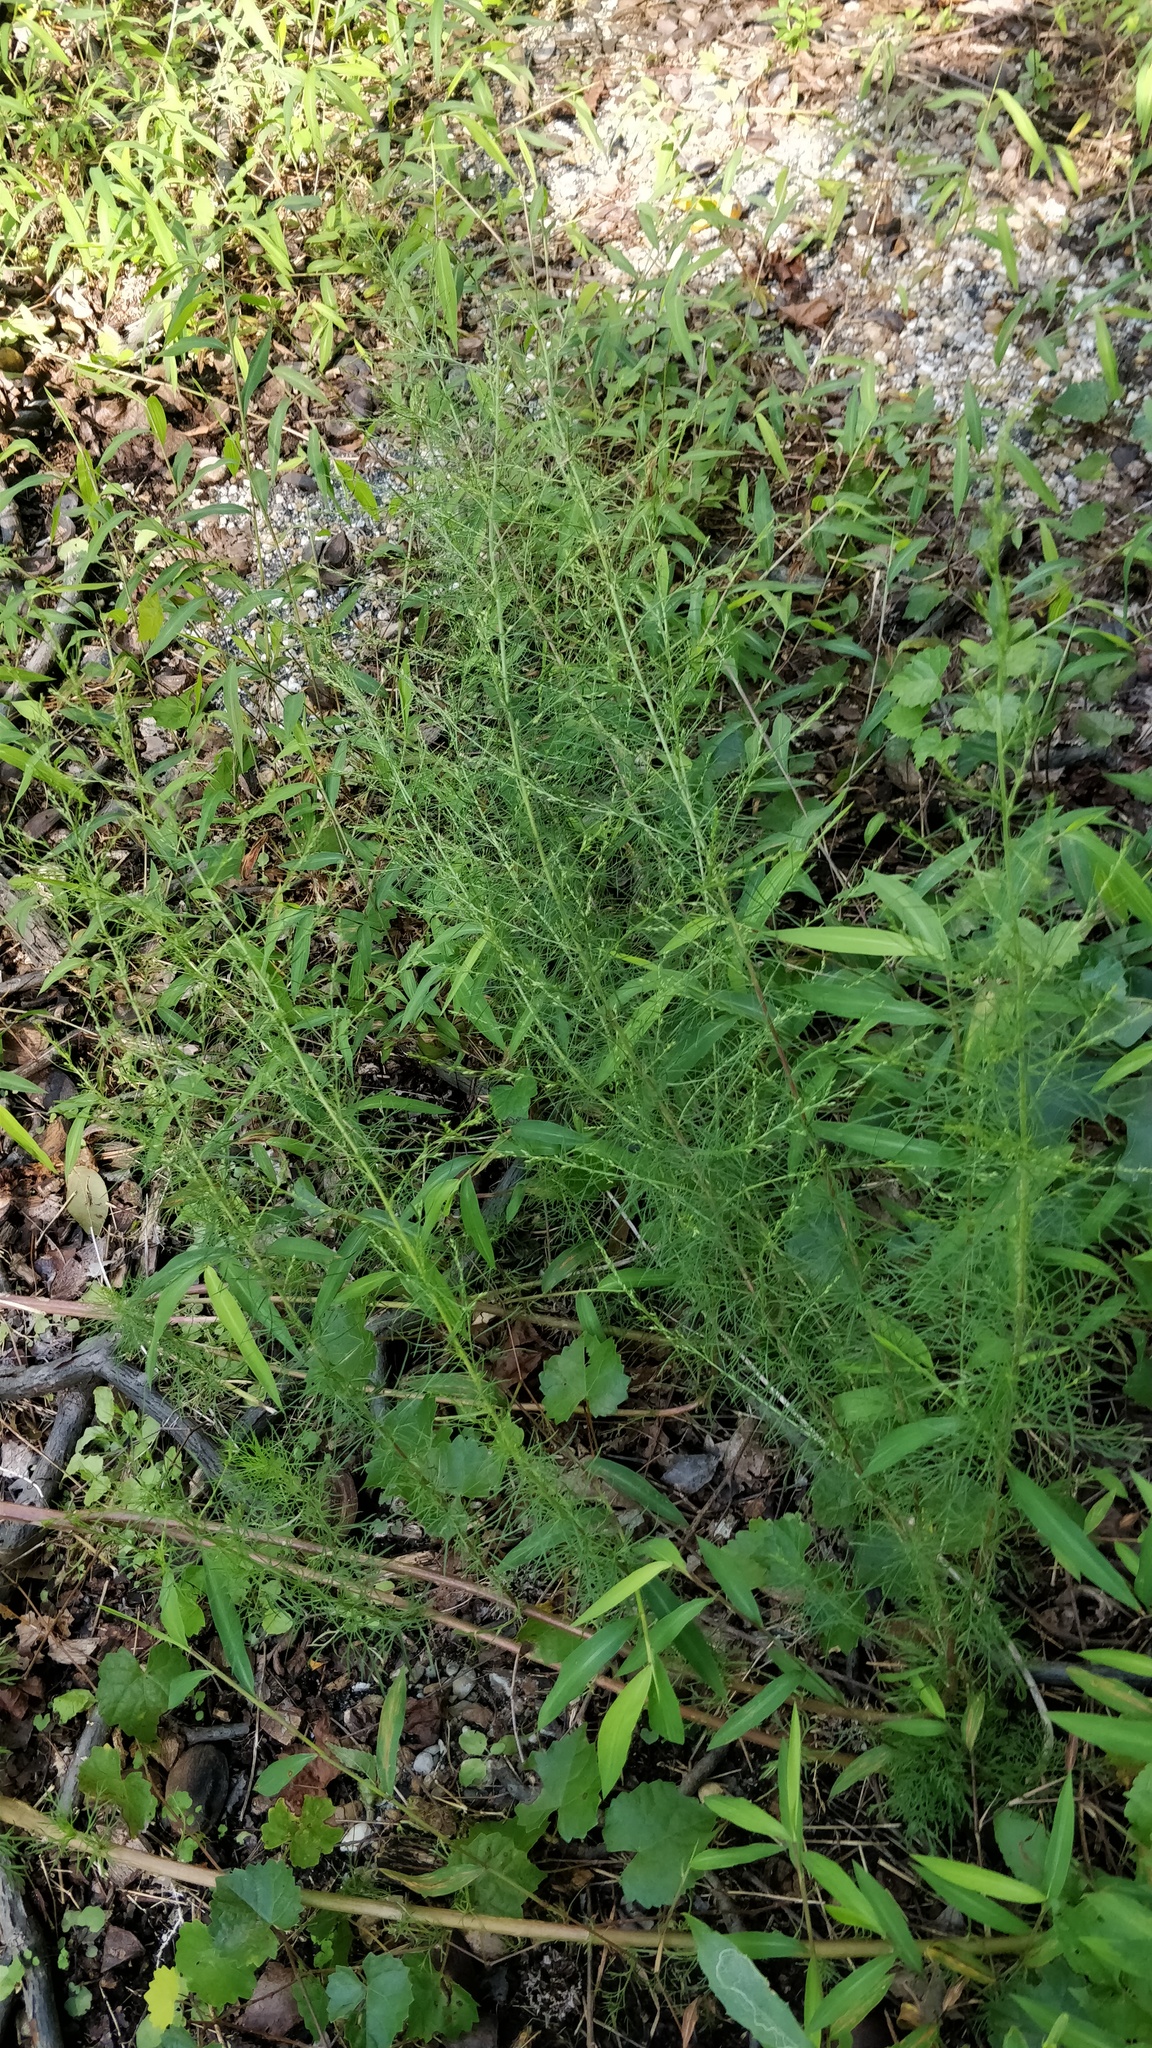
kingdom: Plantae
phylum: Tracheophyta
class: Magnoliopsida
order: Asterales
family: Asteraceae
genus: Eupatorium
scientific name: Eupatorium capillifolium
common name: Dog-fennel
